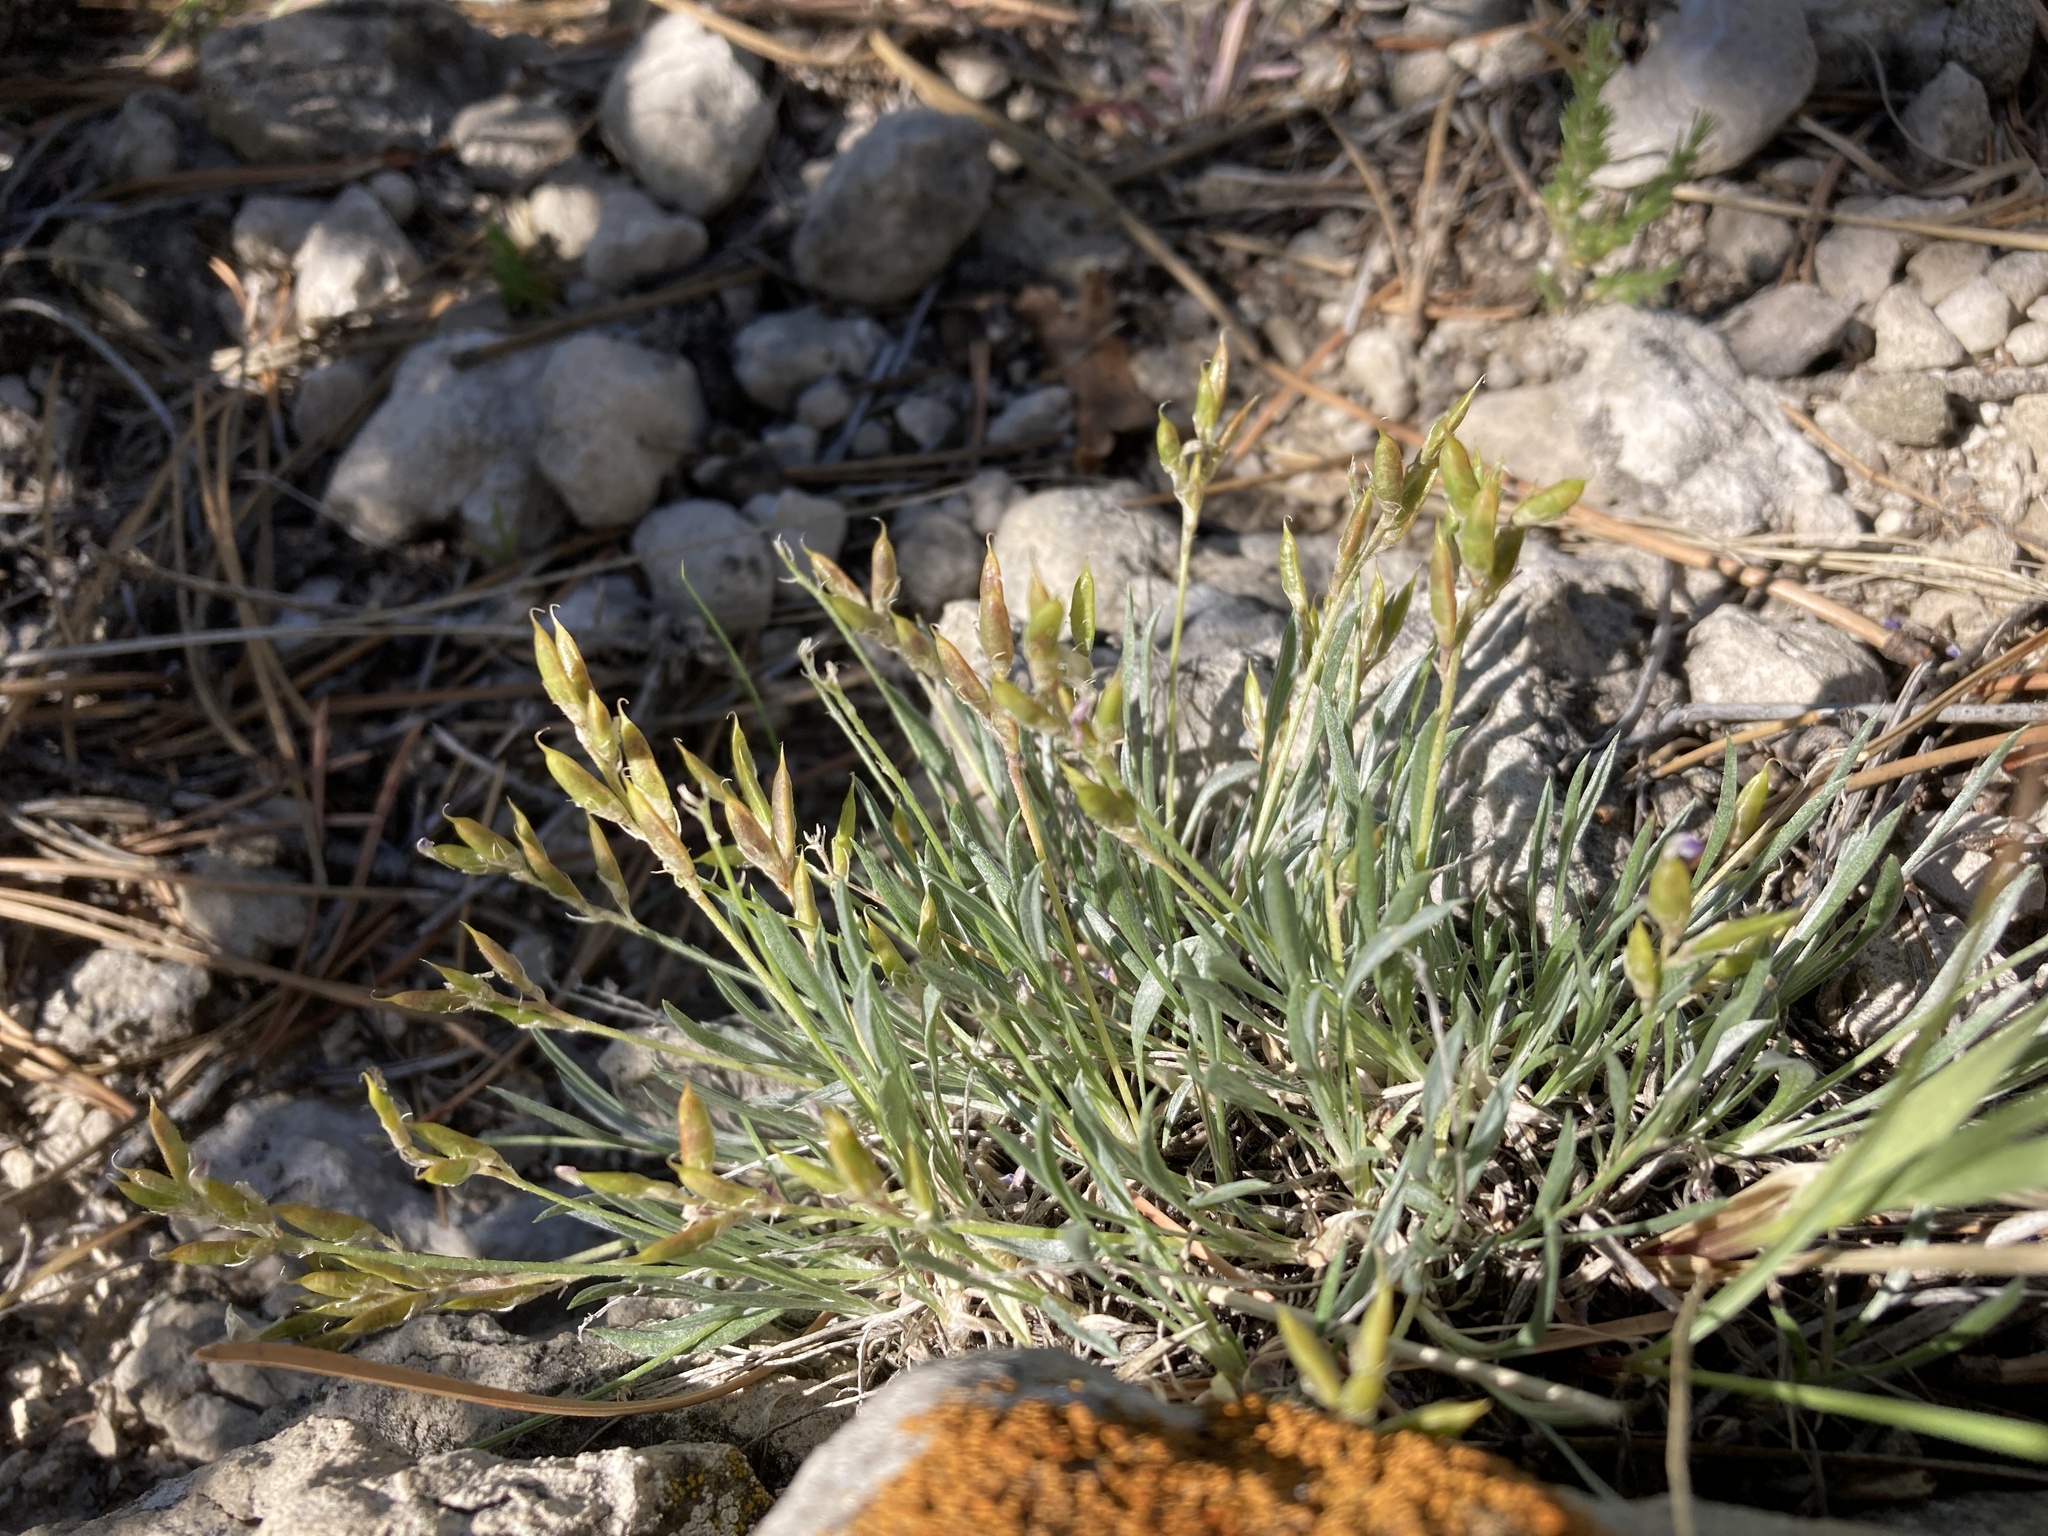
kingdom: Plantae
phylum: Tracheophyta
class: Magnoliopsida
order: Fabales
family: Fabaceae
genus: Astragalus
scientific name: Astragalus spatulatus
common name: Draba milk-vetch
